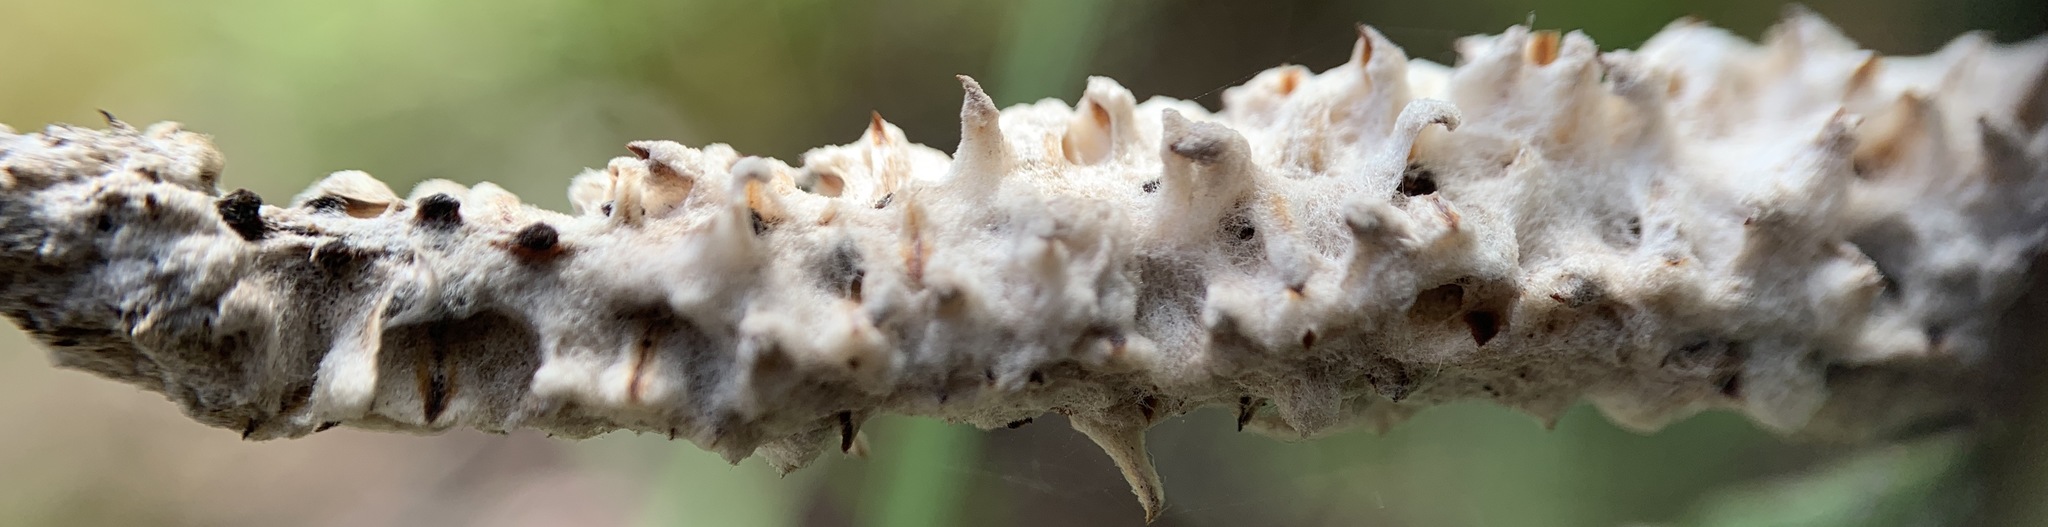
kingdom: Plantae
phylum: Tracheophyta
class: Magnoliopsida
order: Asterales
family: Asteraceae
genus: Pterocaulon
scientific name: Pterocaulon pycnostachyum
